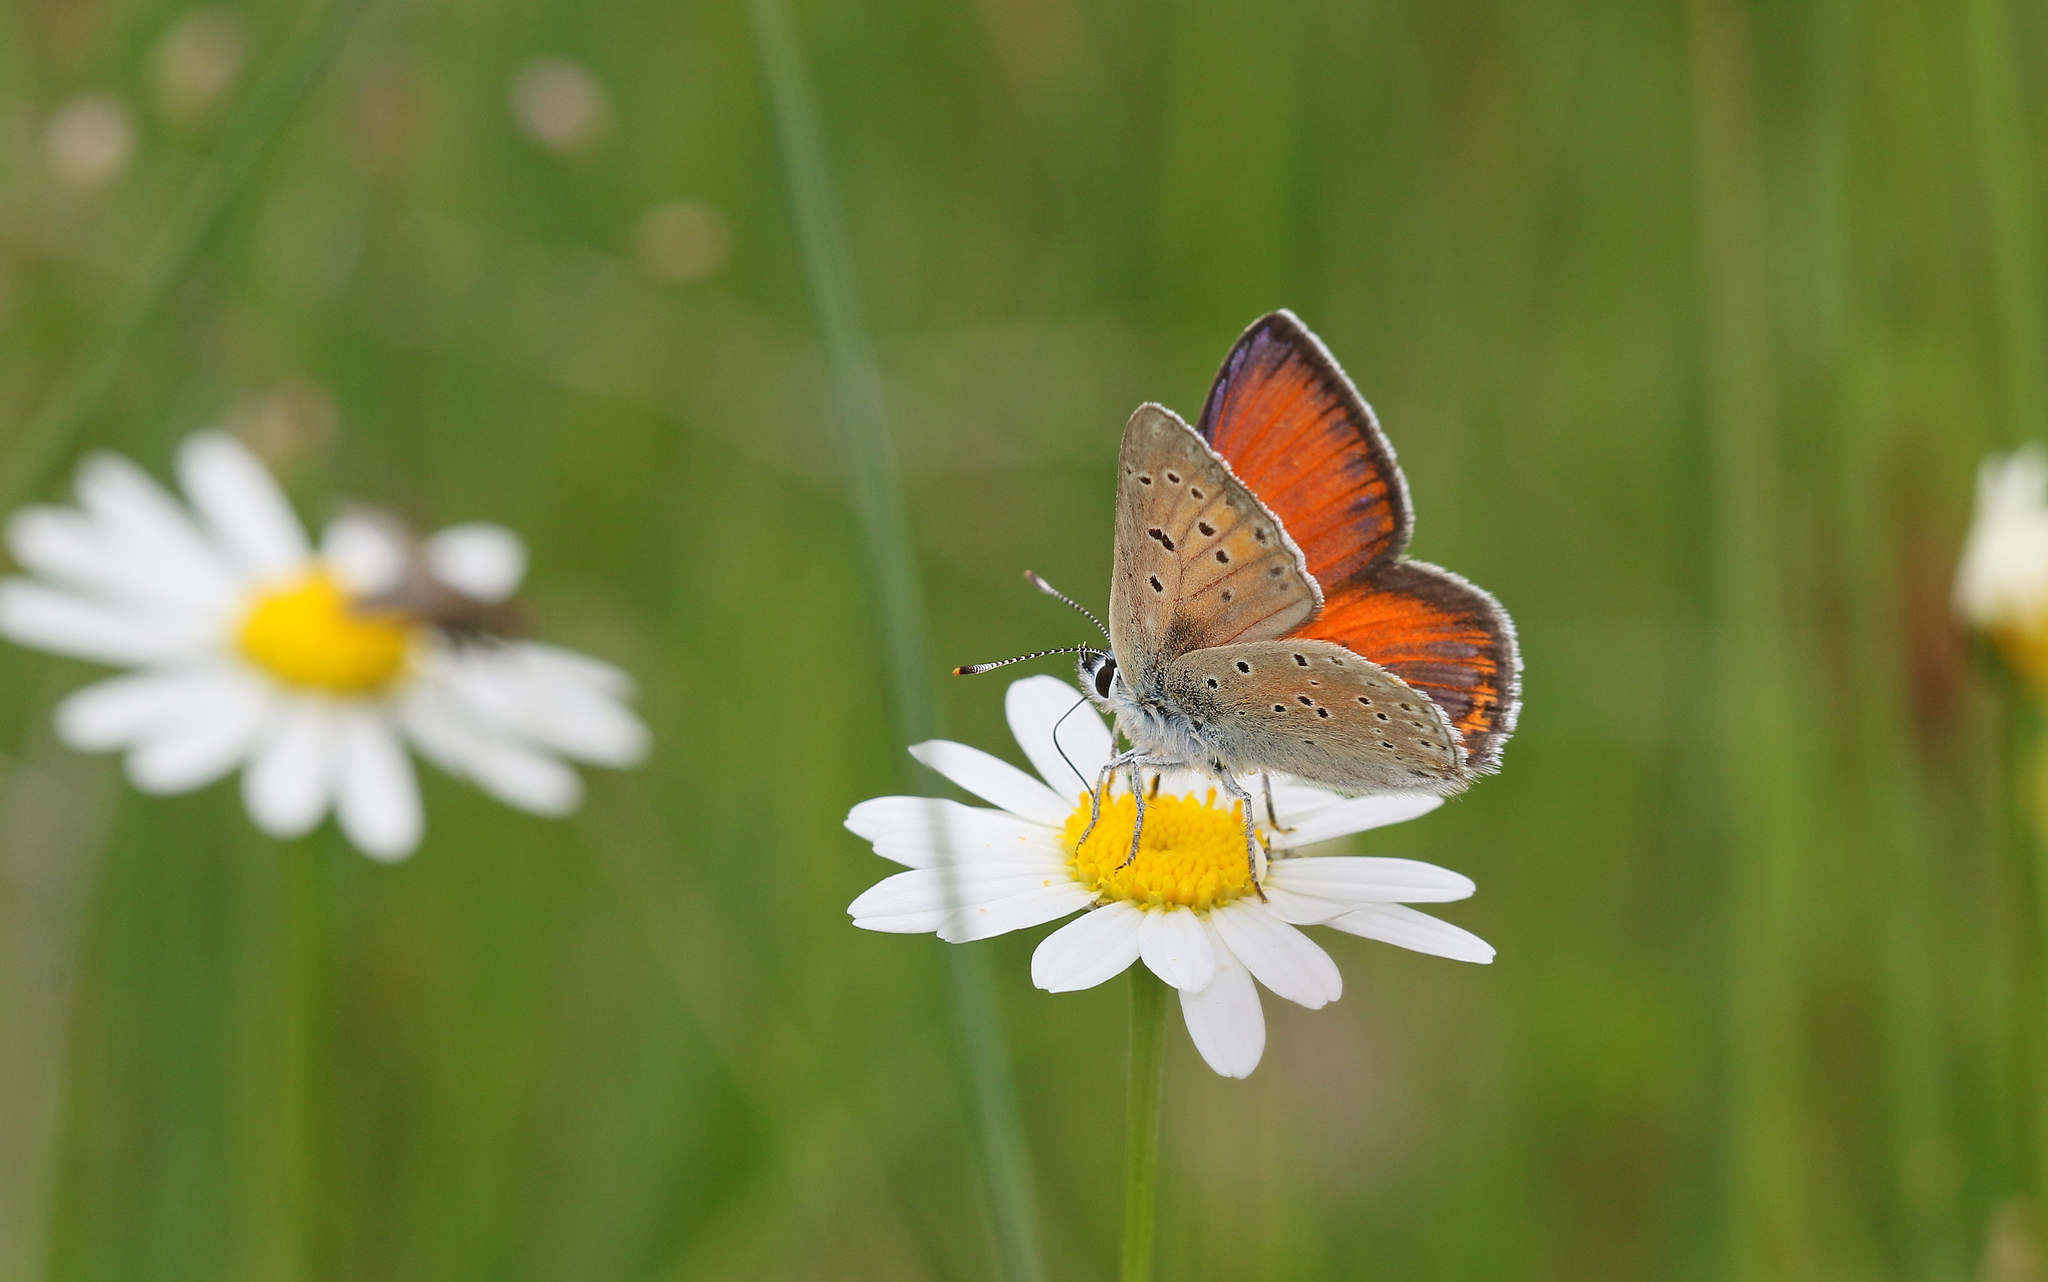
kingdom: Animalia
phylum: Arthropoda
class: Insecta
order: Lepidoptera
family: Lycaenidae
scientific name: Lycaenidae
